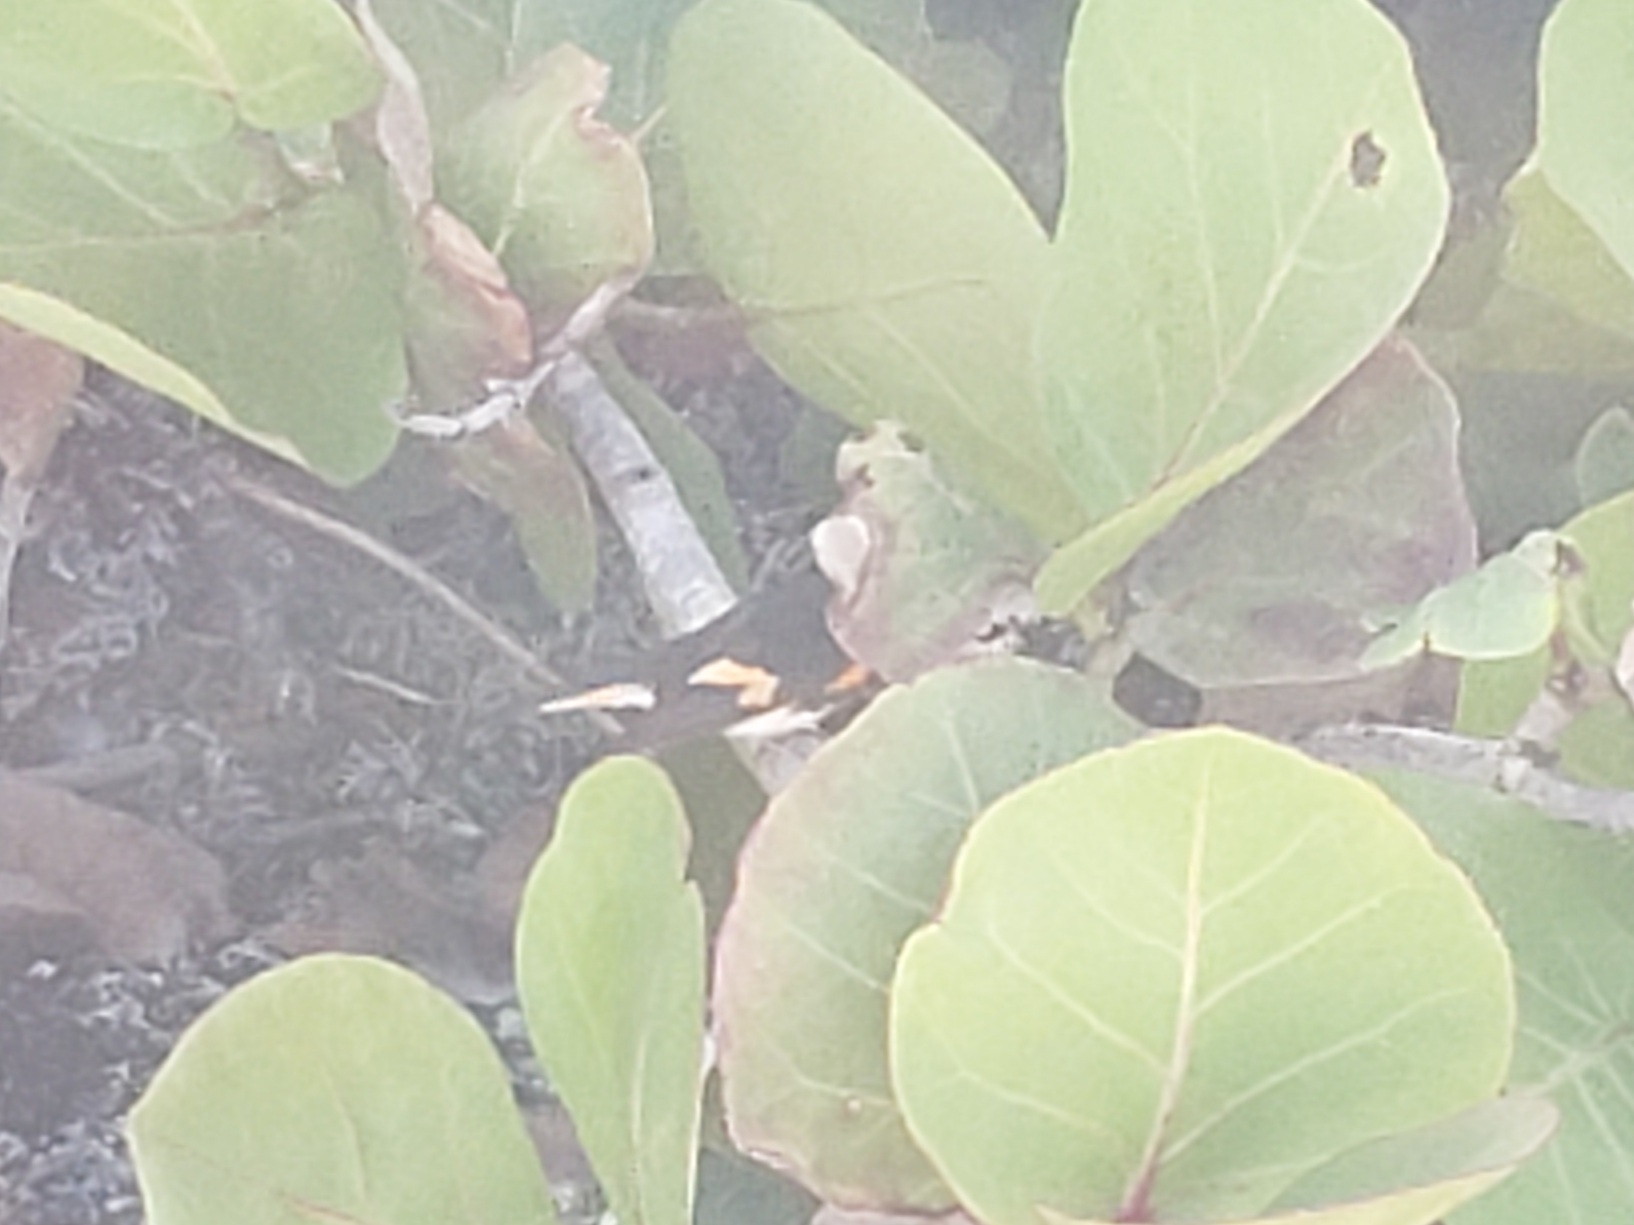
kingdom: Animalia
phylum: Chordata
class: Aves
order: Passeriformes
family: Parulidae
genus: Setophaga
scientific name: Setophaga ruticilla
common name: American redstart
